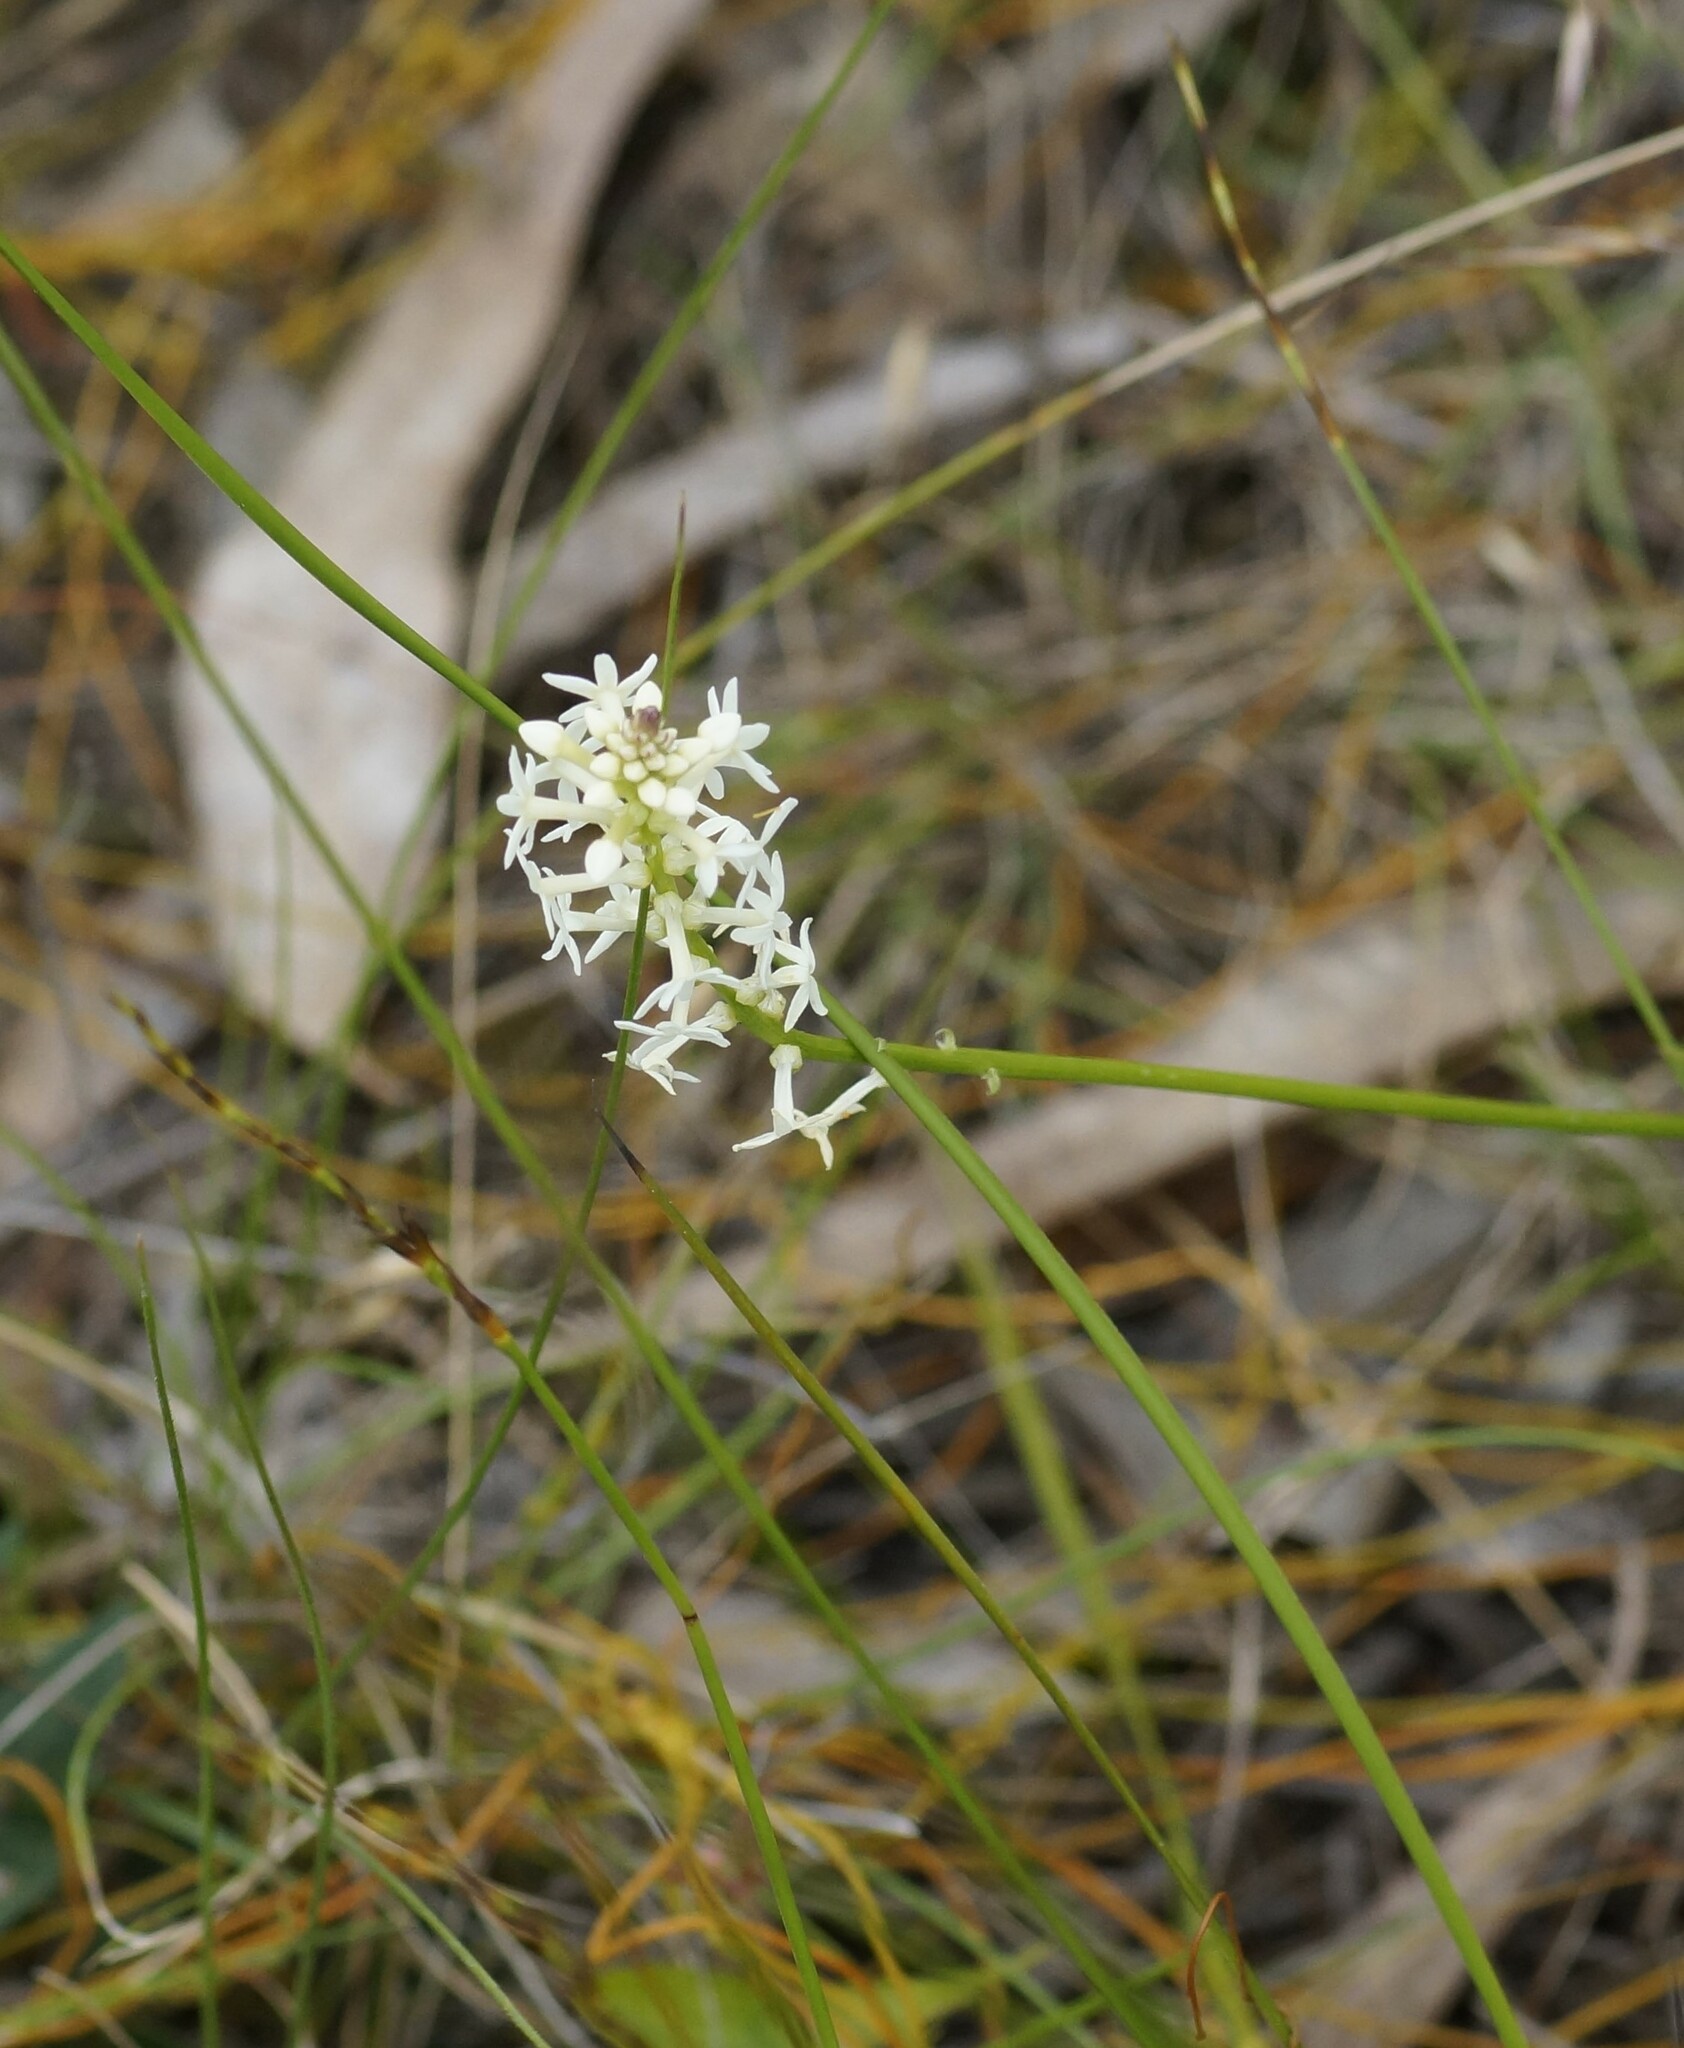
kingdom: Plantae
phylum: Tracheophyta
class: Magnoliopsida
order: Celastrales
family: Celastraceae
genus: Stackhousia
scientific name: Stackhousia monogyna
